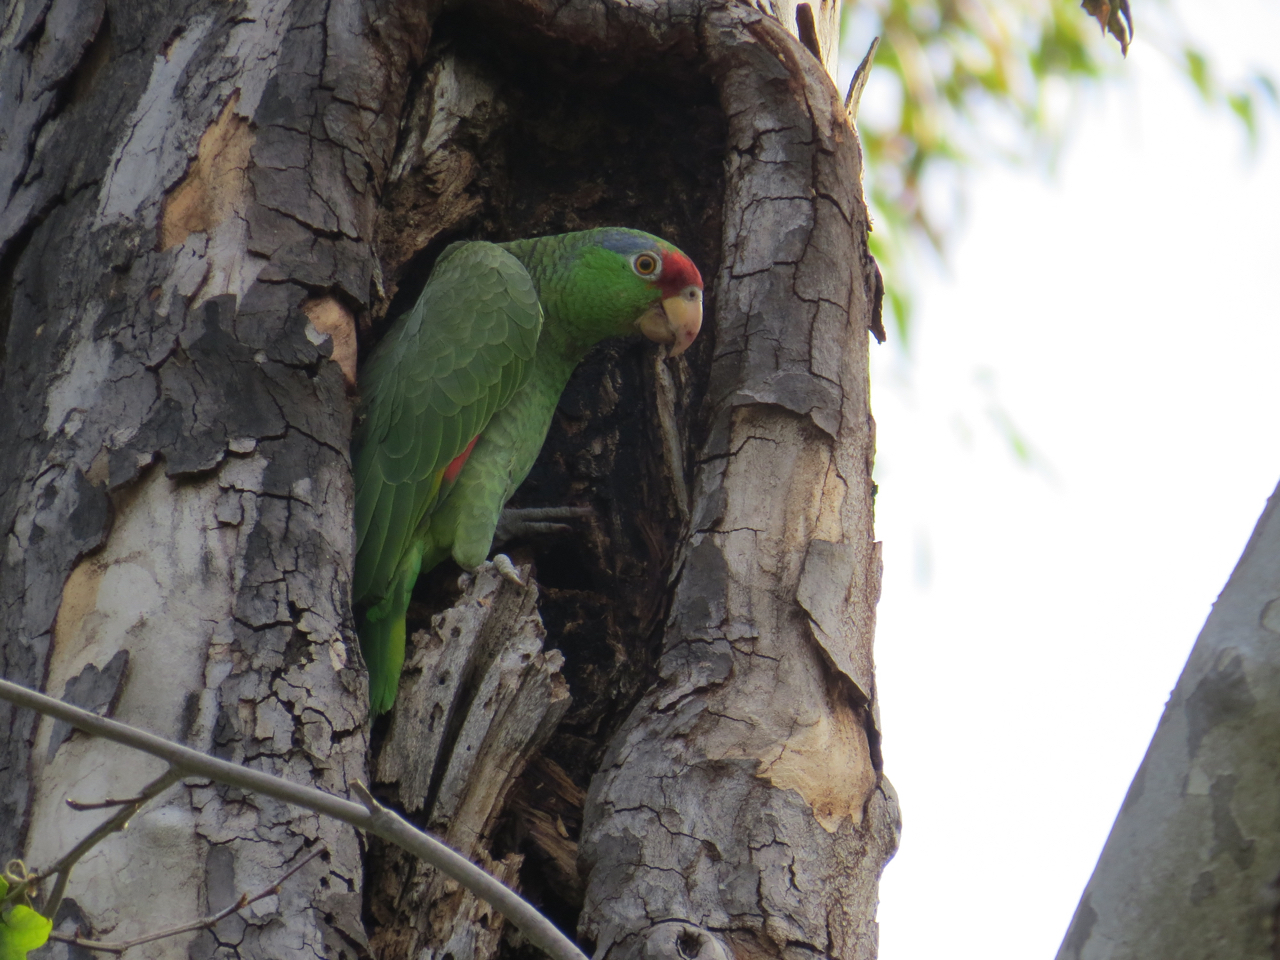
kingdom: Animalia
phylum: Chordata
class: Aves
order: Psittaciformes
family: Psittacidae
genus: Amazona
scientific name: Amazona viridigenalis
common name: Red-crowned amazon
